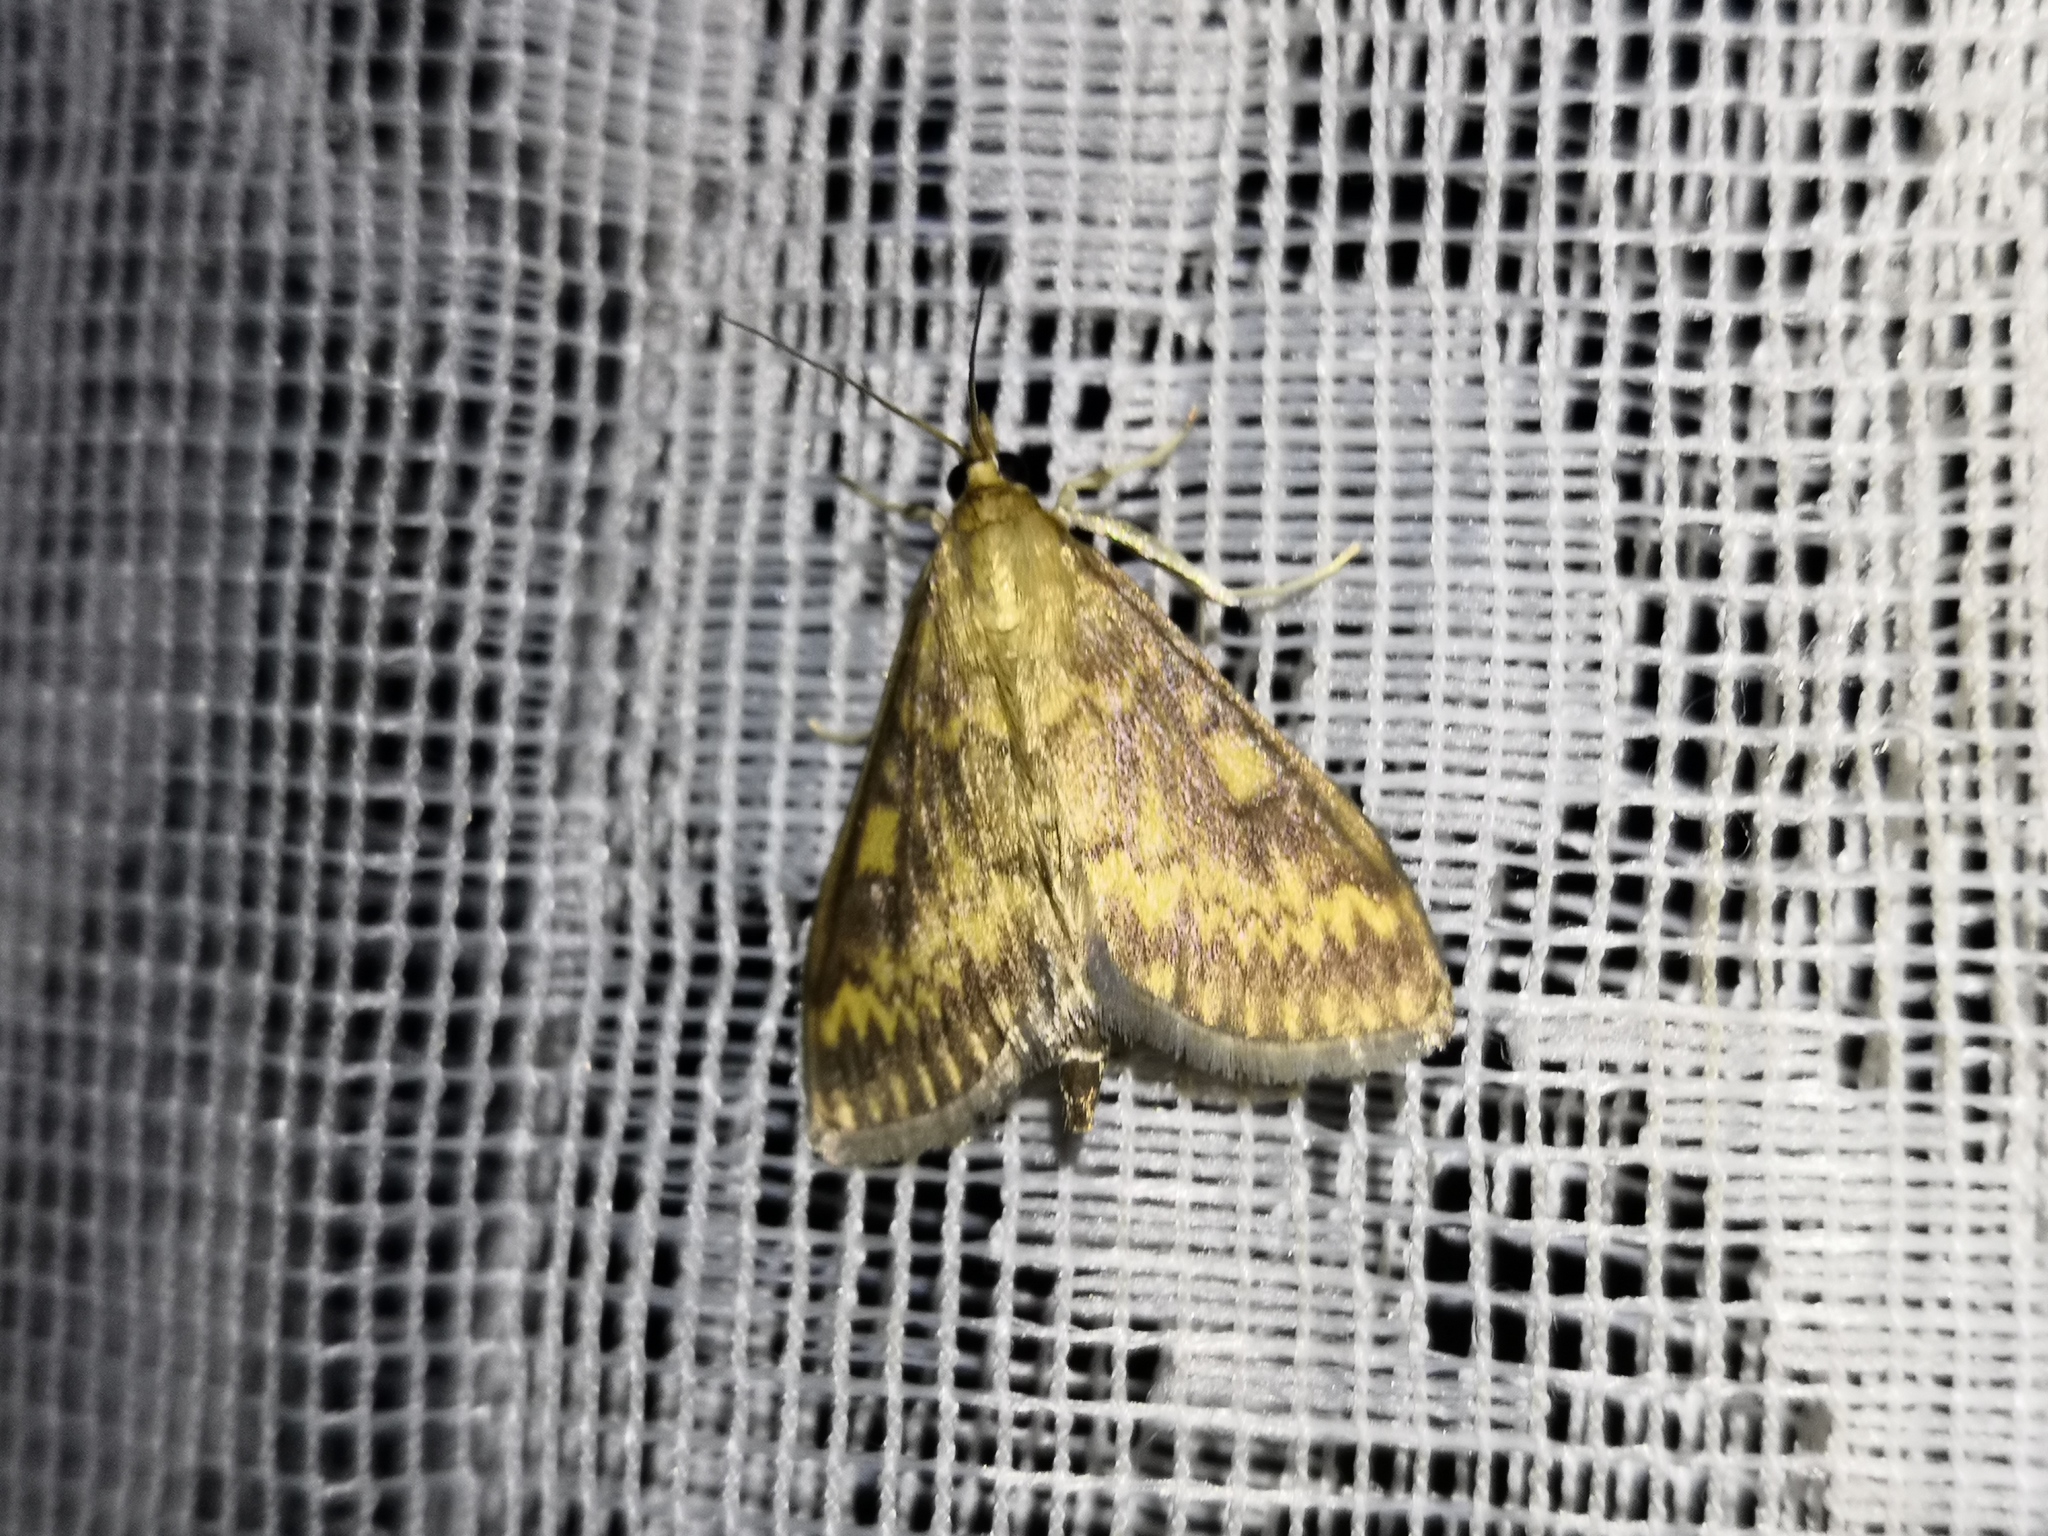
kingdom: Animalia
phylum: Arthropoda
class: Insecta
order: Lepidoptera
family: Crambidae
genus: Ostrinia
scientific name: Ostrinia nubilalis
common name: European corn borer
